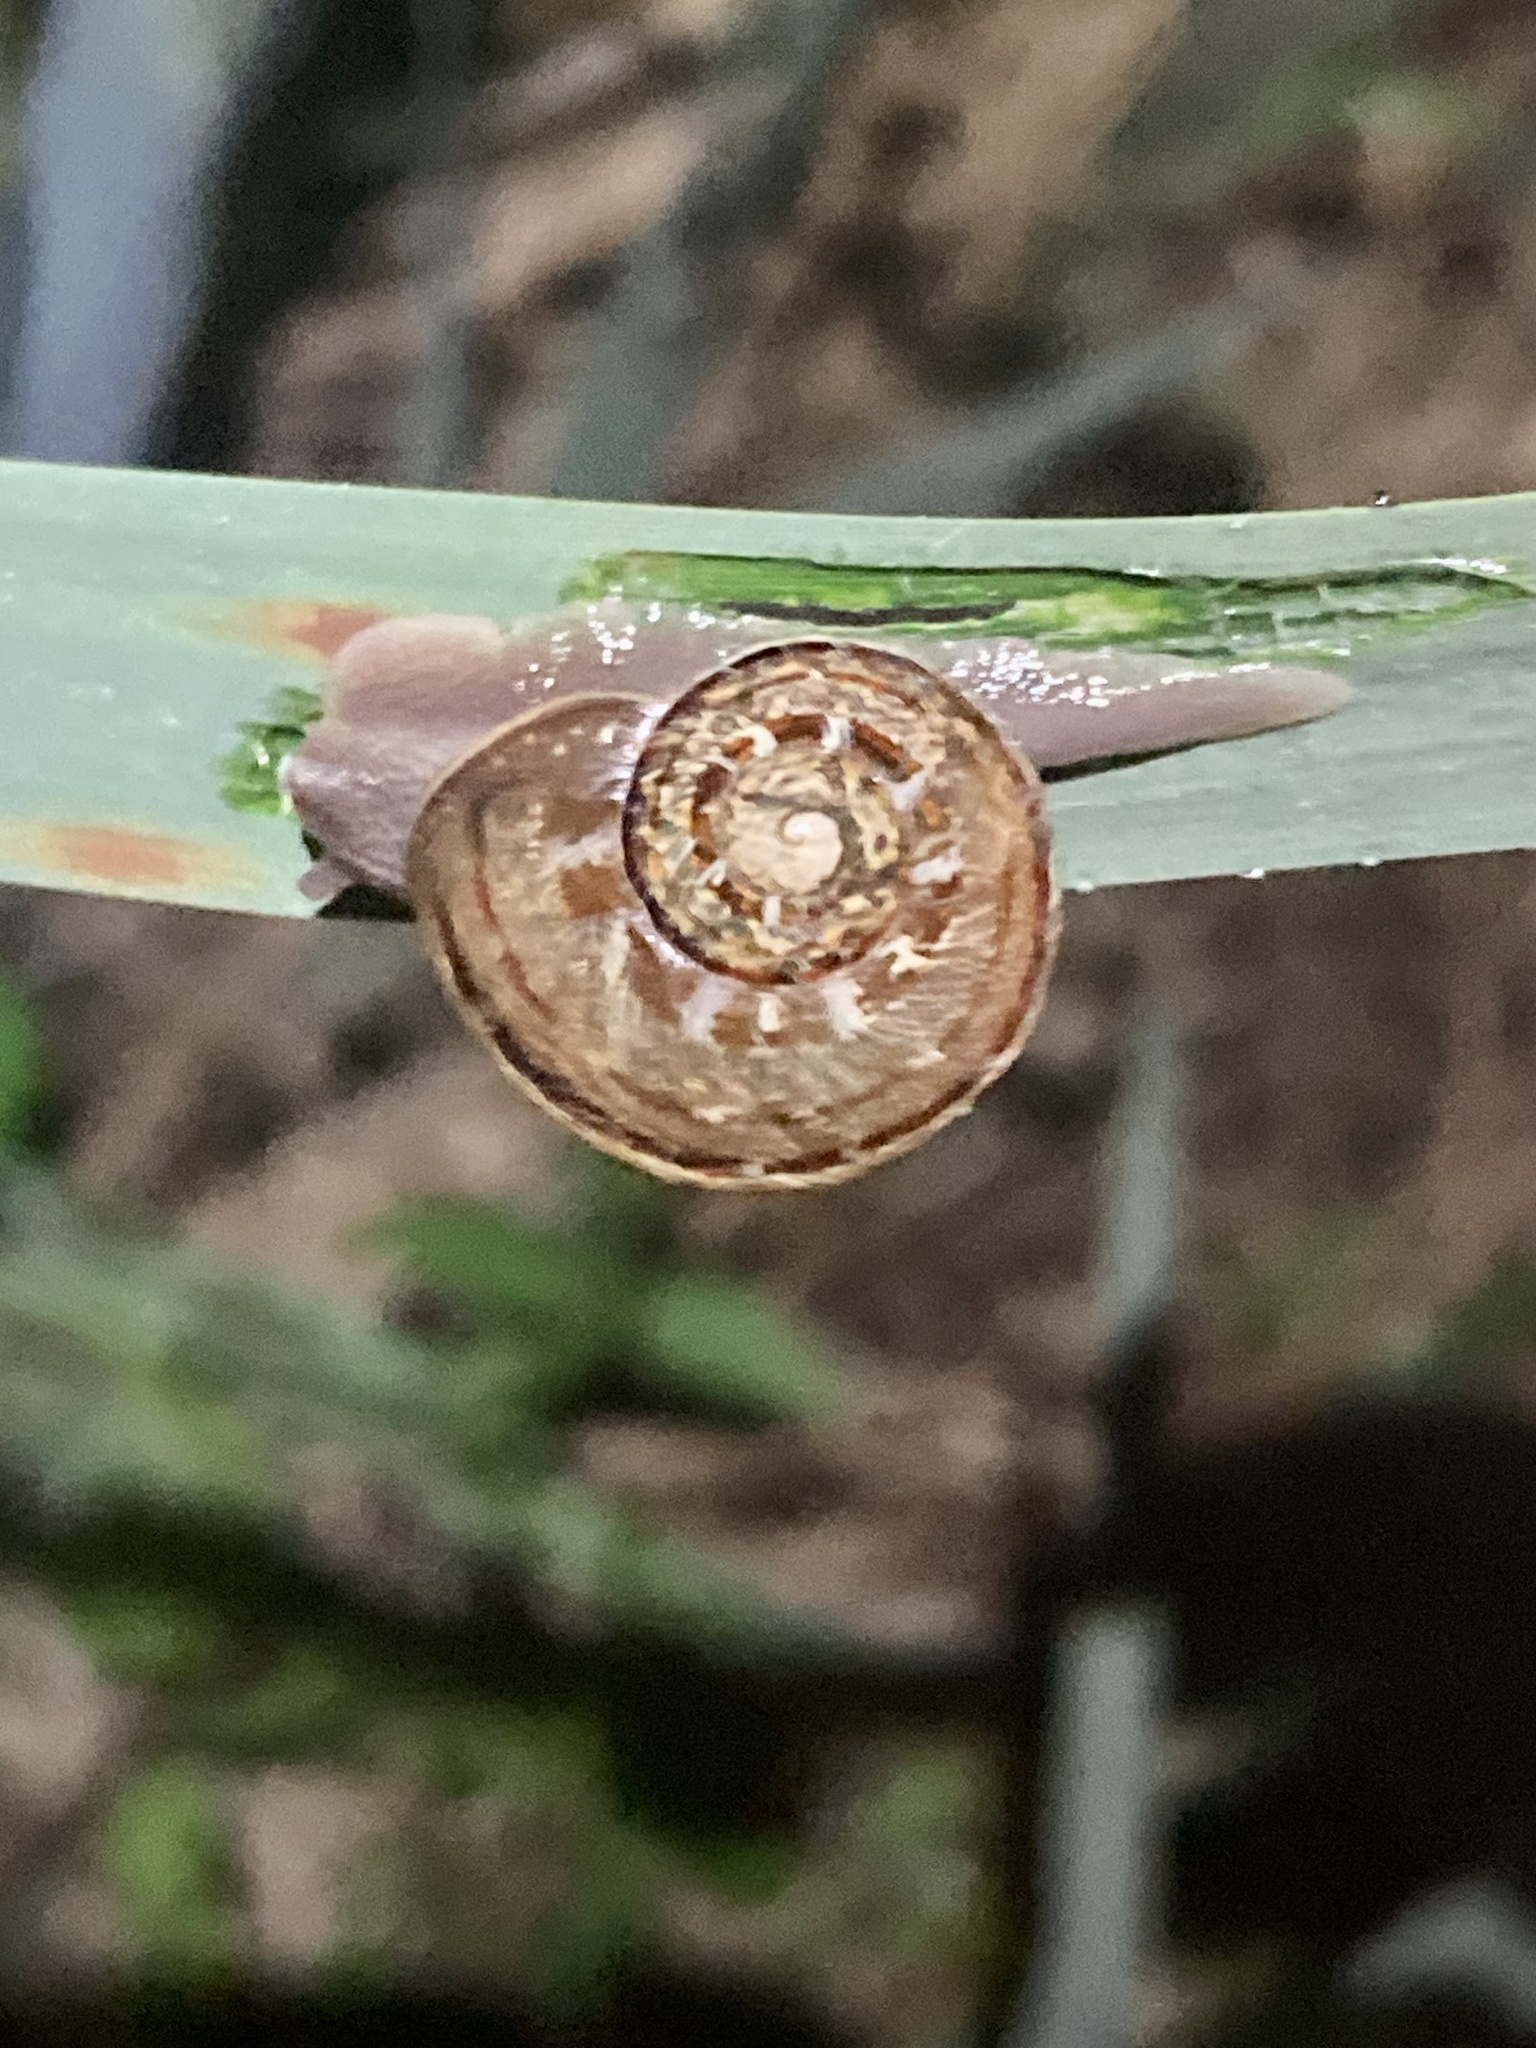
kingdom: Animalia
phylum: Mollusca
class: Gastropoda
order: Stylommatophora
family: Helicidae
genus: Cornu
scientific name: Cornu aspersum
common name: Brown garden snail
